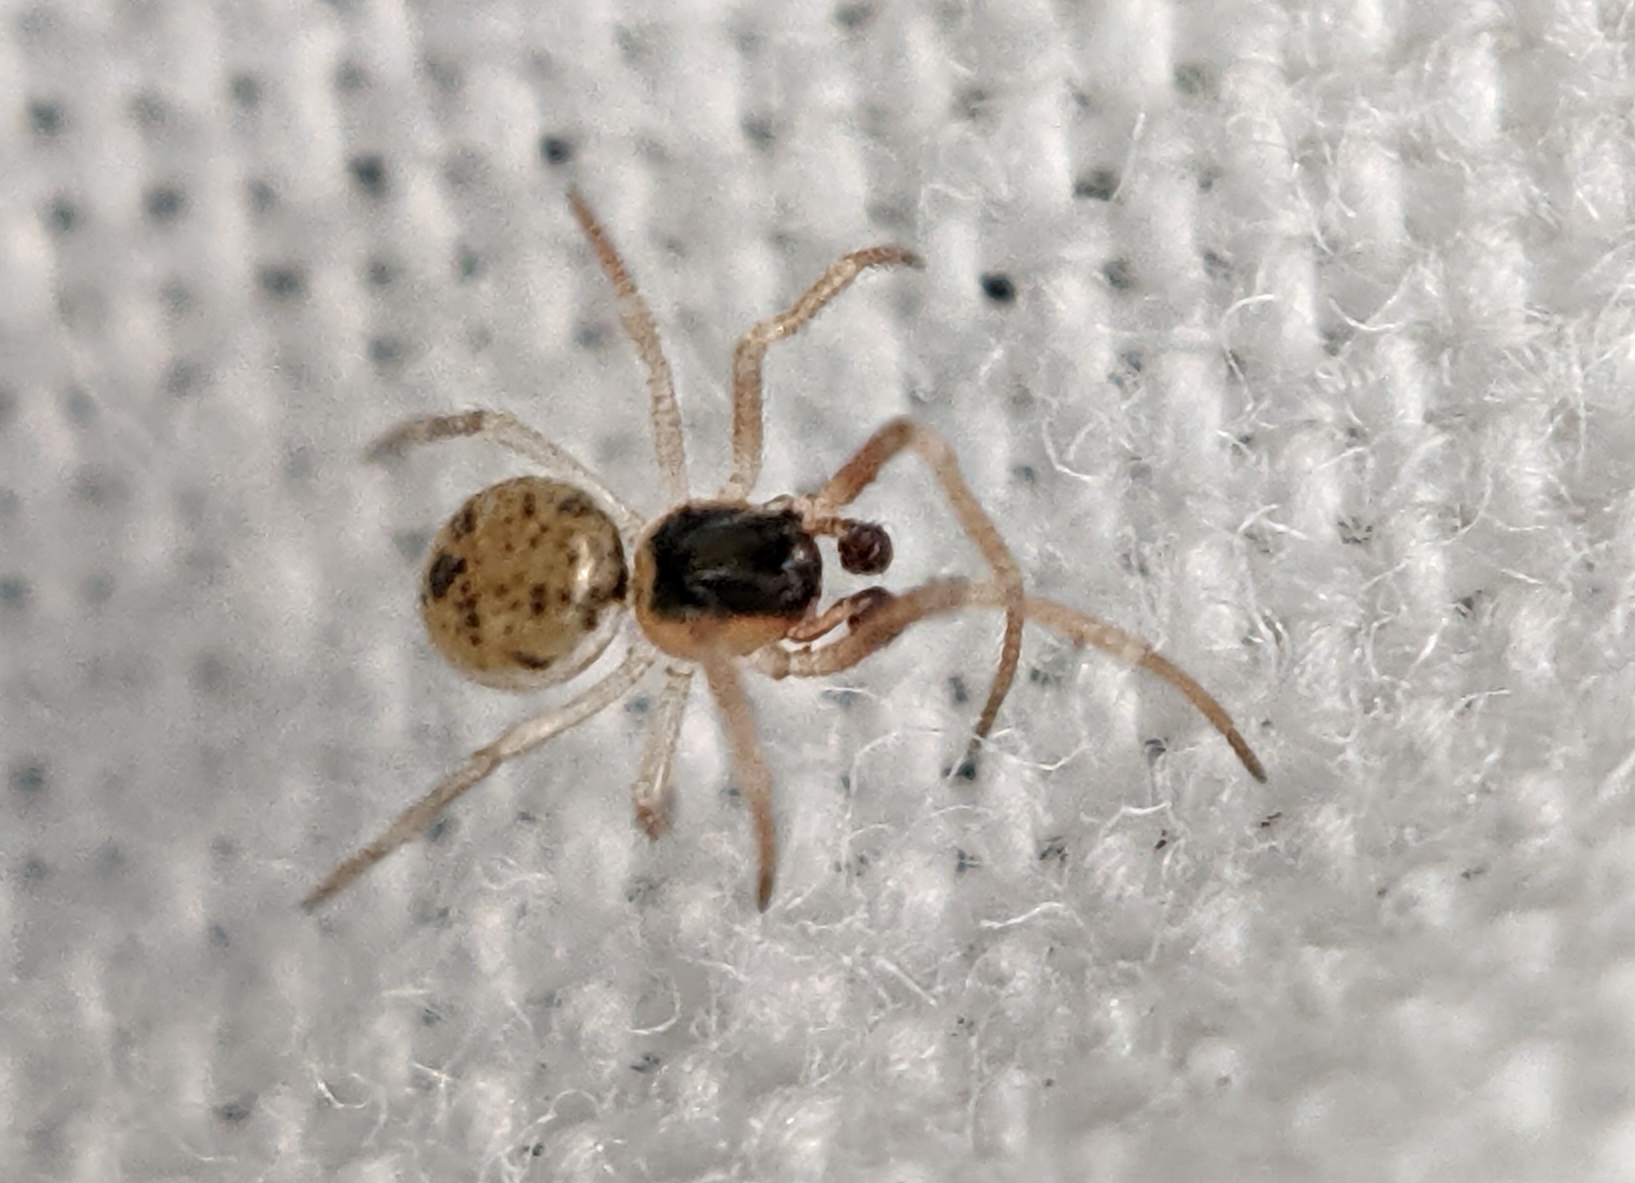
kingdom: Animalia
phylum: Arthropoda
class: Arachnida
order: Araneae
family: Theridiidae
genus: Paidiscura
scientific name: Paidiscura pallens
